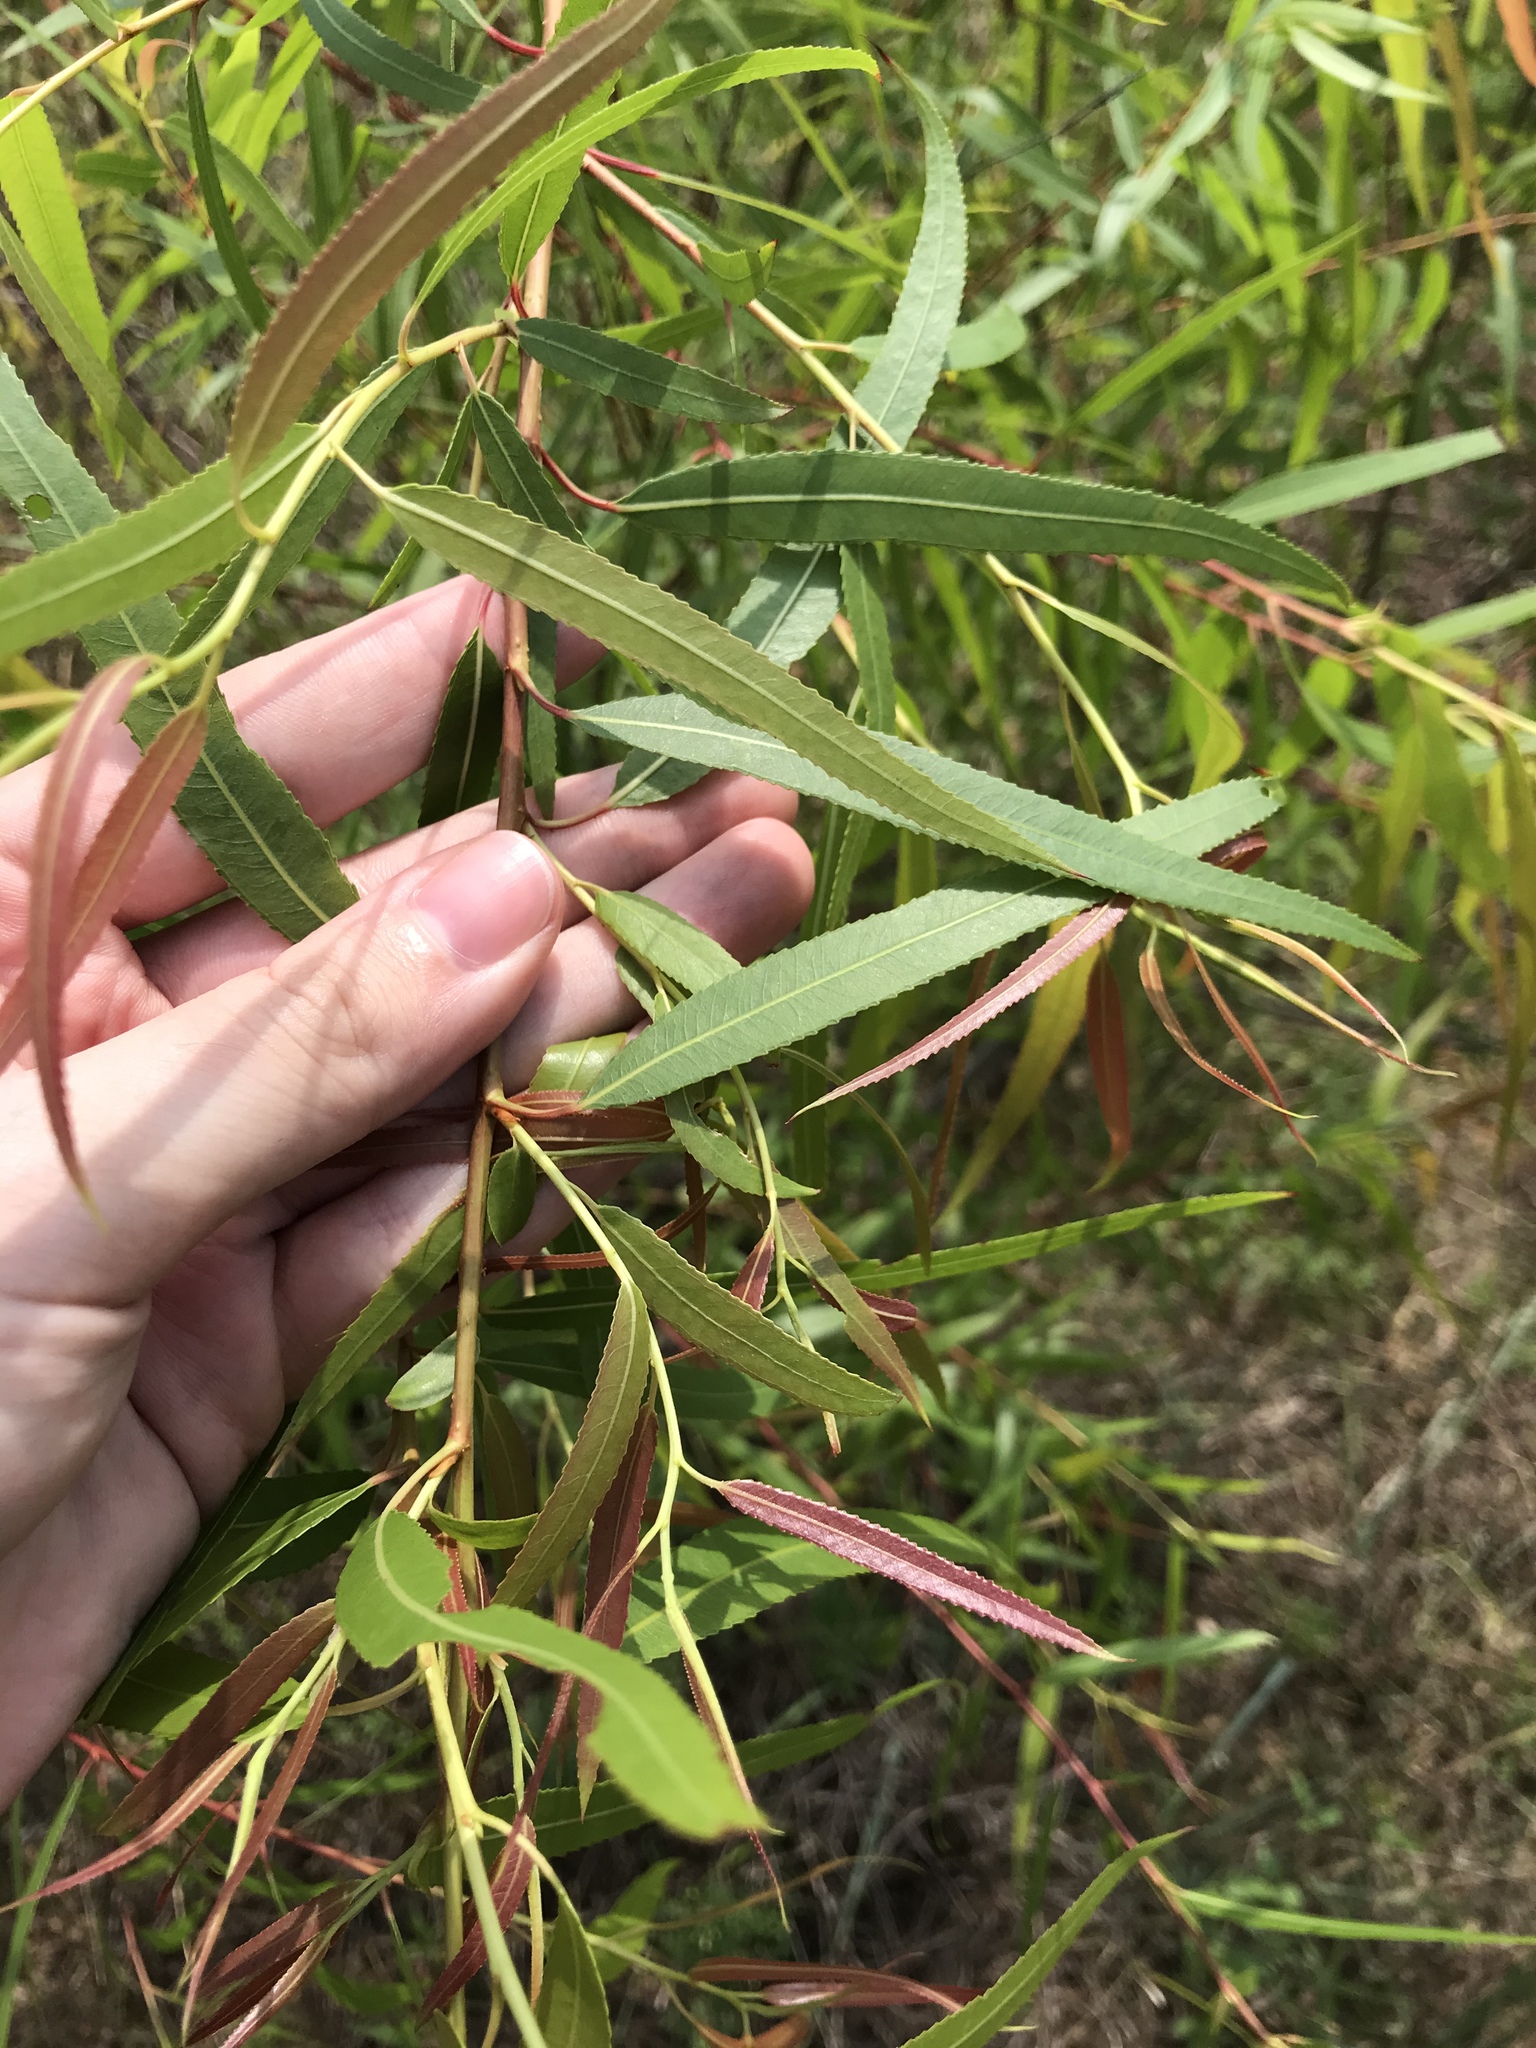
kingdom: Plantae
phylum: Tracheophyta
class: Magnoliopsida
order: Malpighiales
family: Salicaceae
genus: Salix
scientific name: Salix nigra
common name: Black willow
